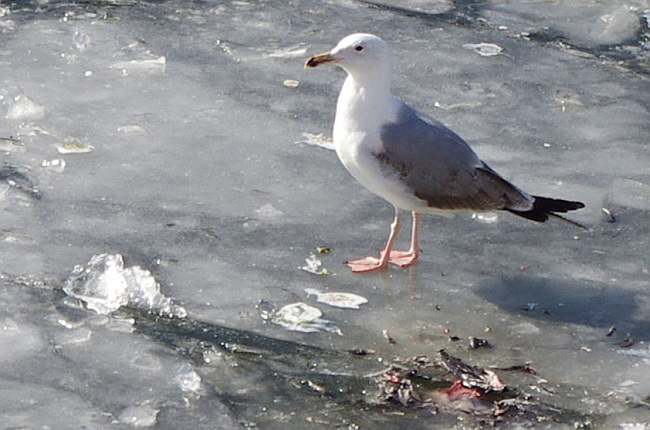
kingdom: Animalia
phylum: Chordata
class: Aves
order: Charadriiformes
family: Laridae
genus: Larus
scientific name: Larus cachinnans
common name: Caspian gull
